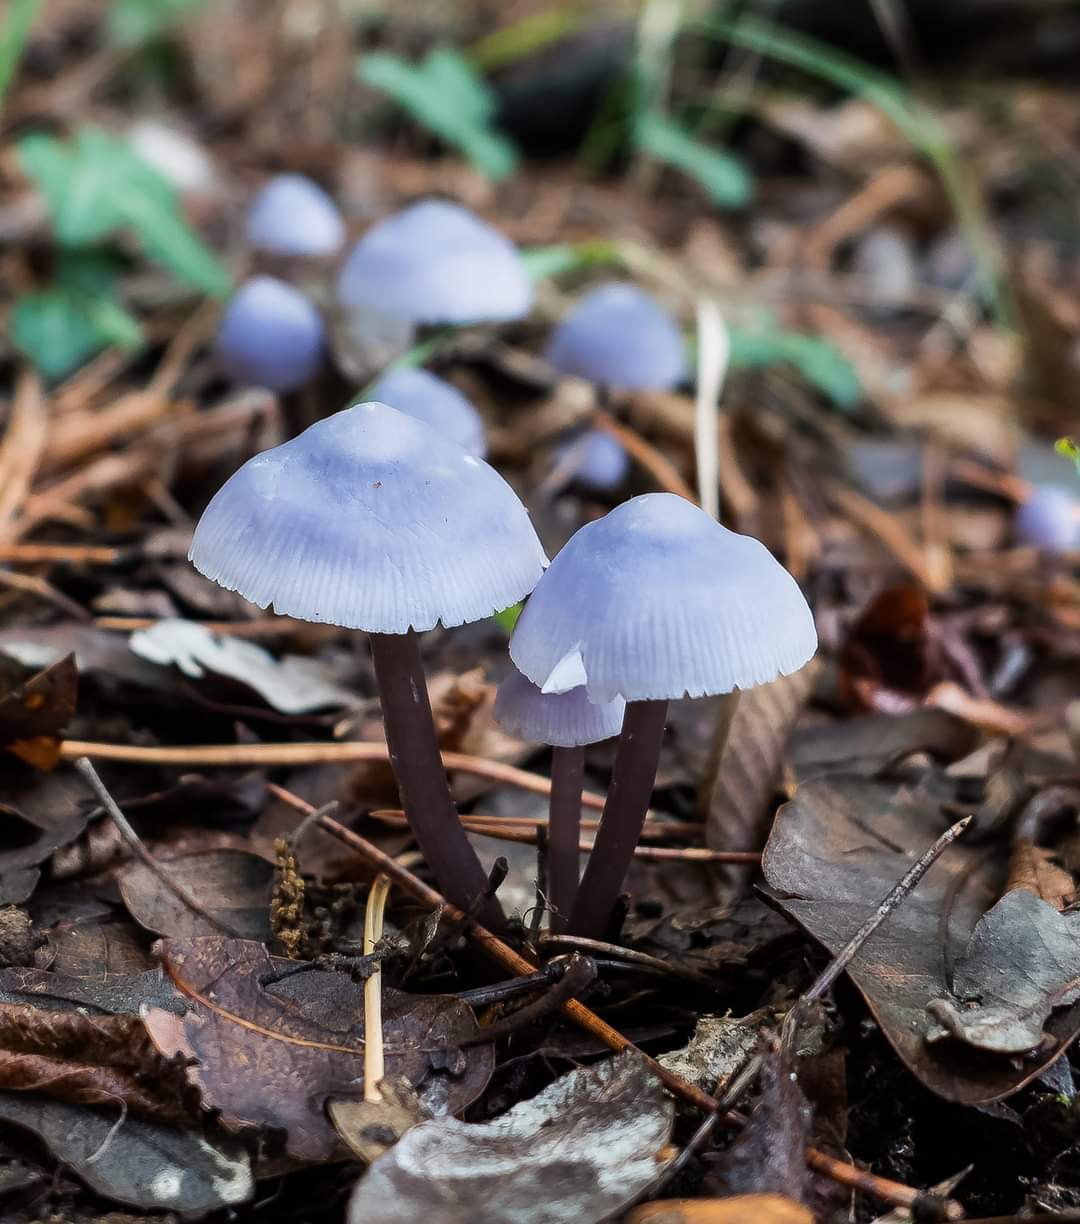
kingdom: Fungi
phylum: Basidiomycota
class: Agaricomycetes
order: Agaricales
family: Mycenaceae
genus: Mycena
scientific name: Mycena pura
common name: Lilac bonnet
